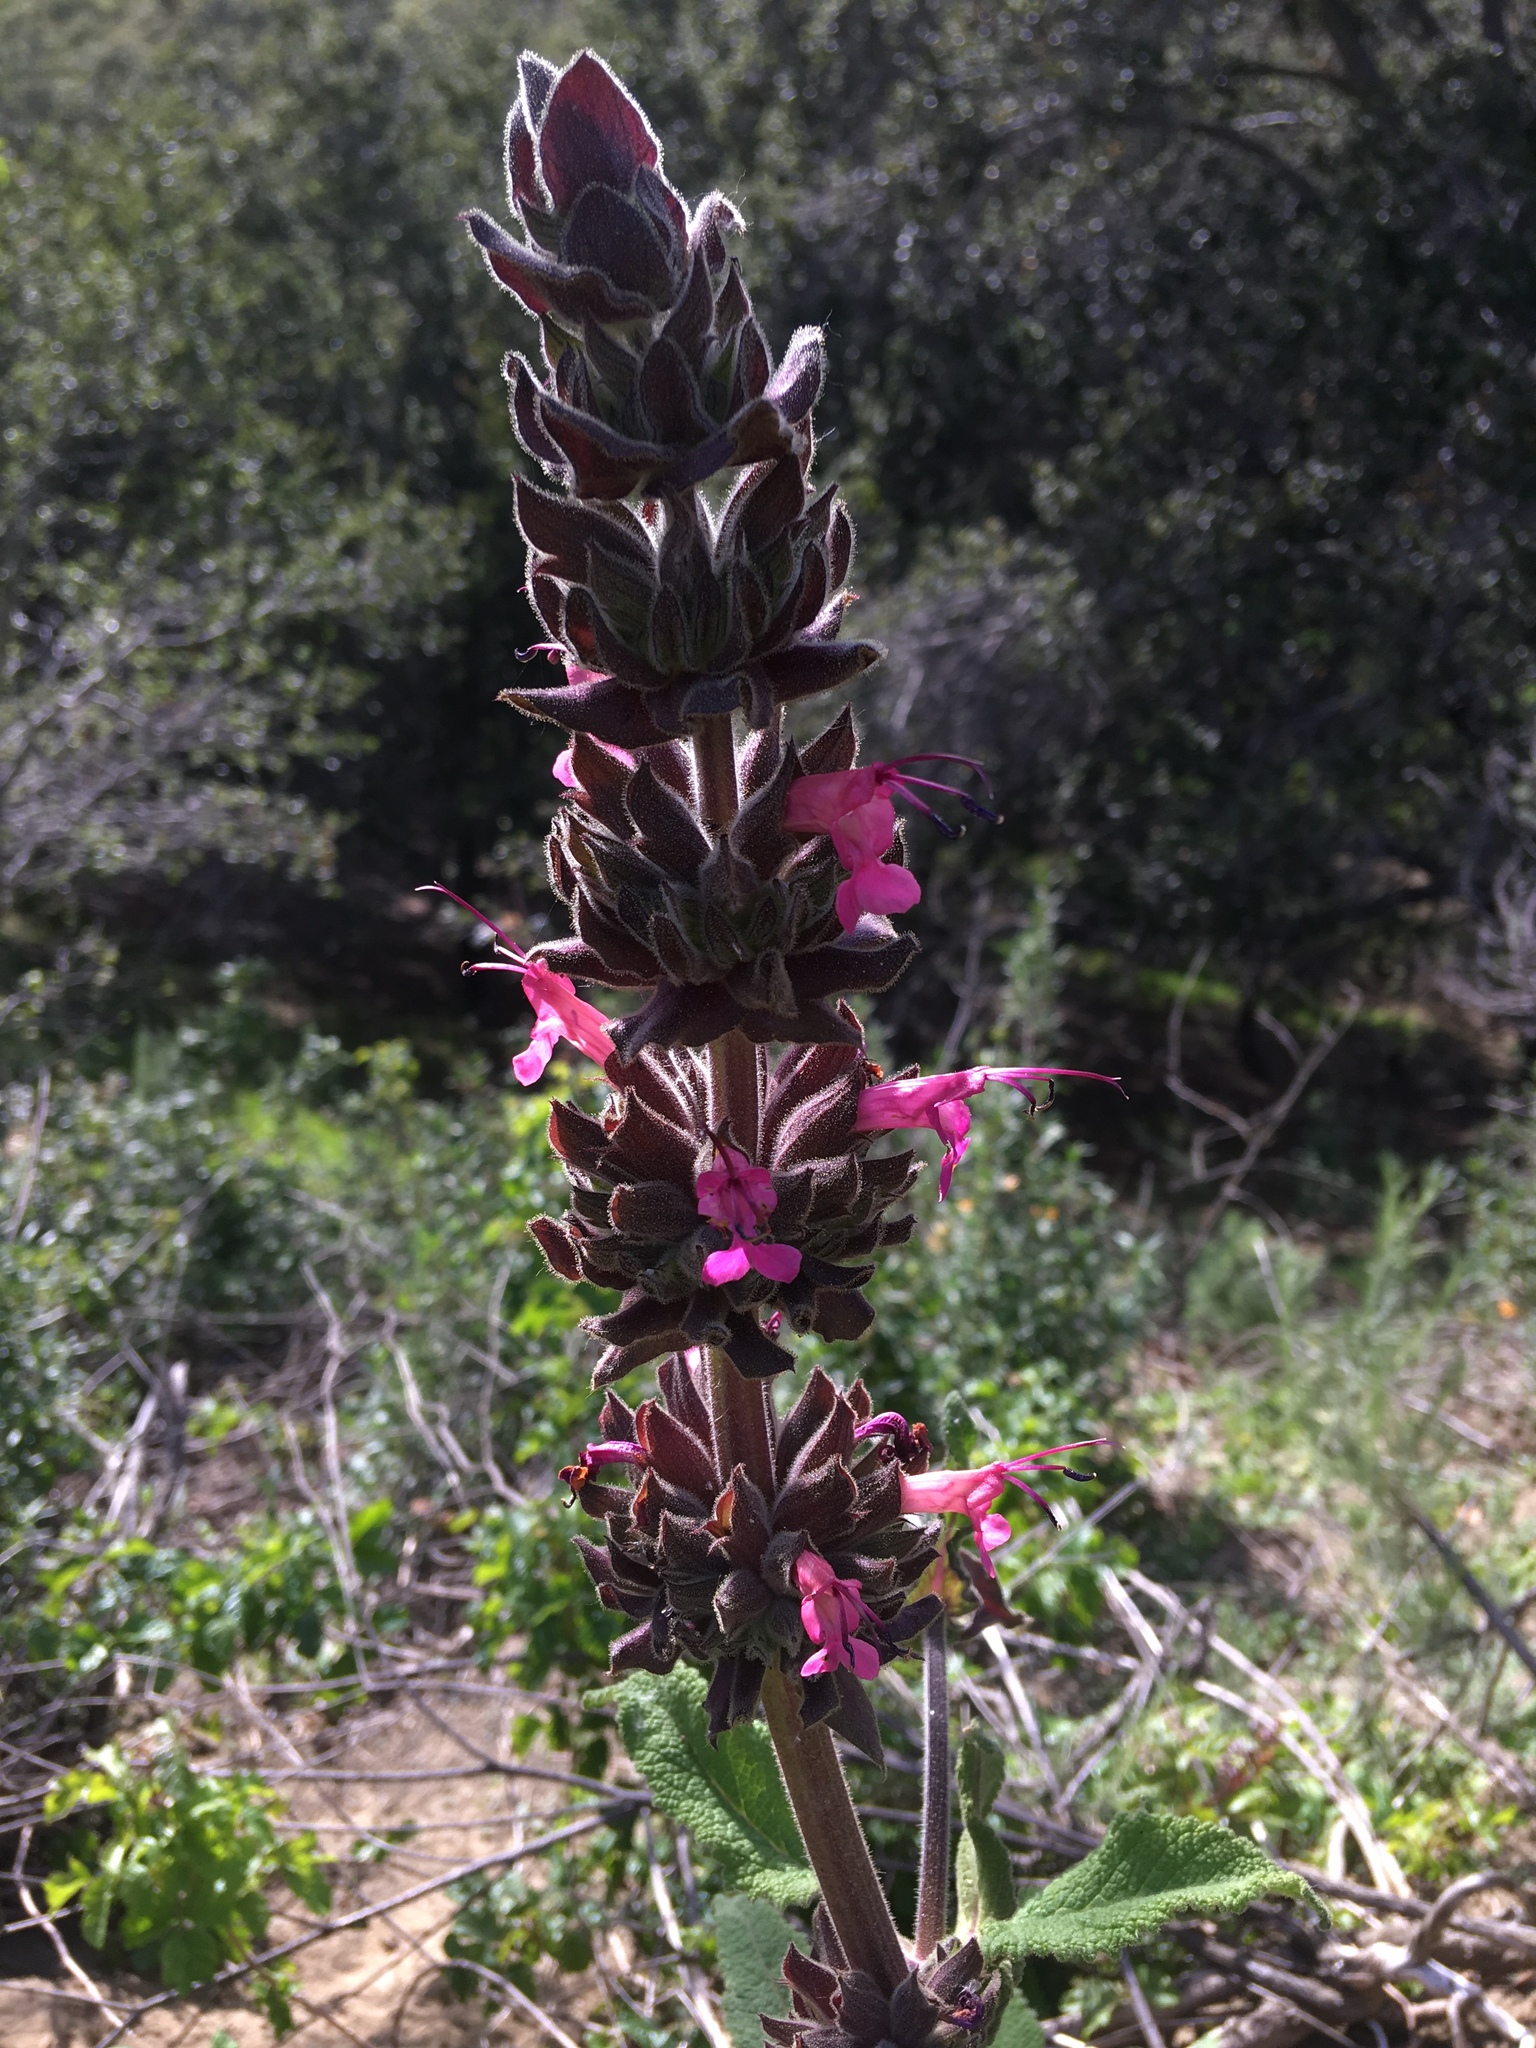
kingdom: Plantae
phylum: Tracheophyta
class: Magnoliopsida
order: Lamiales
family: Lamiaceae
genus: Salvia
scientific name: Salvia spathacea
